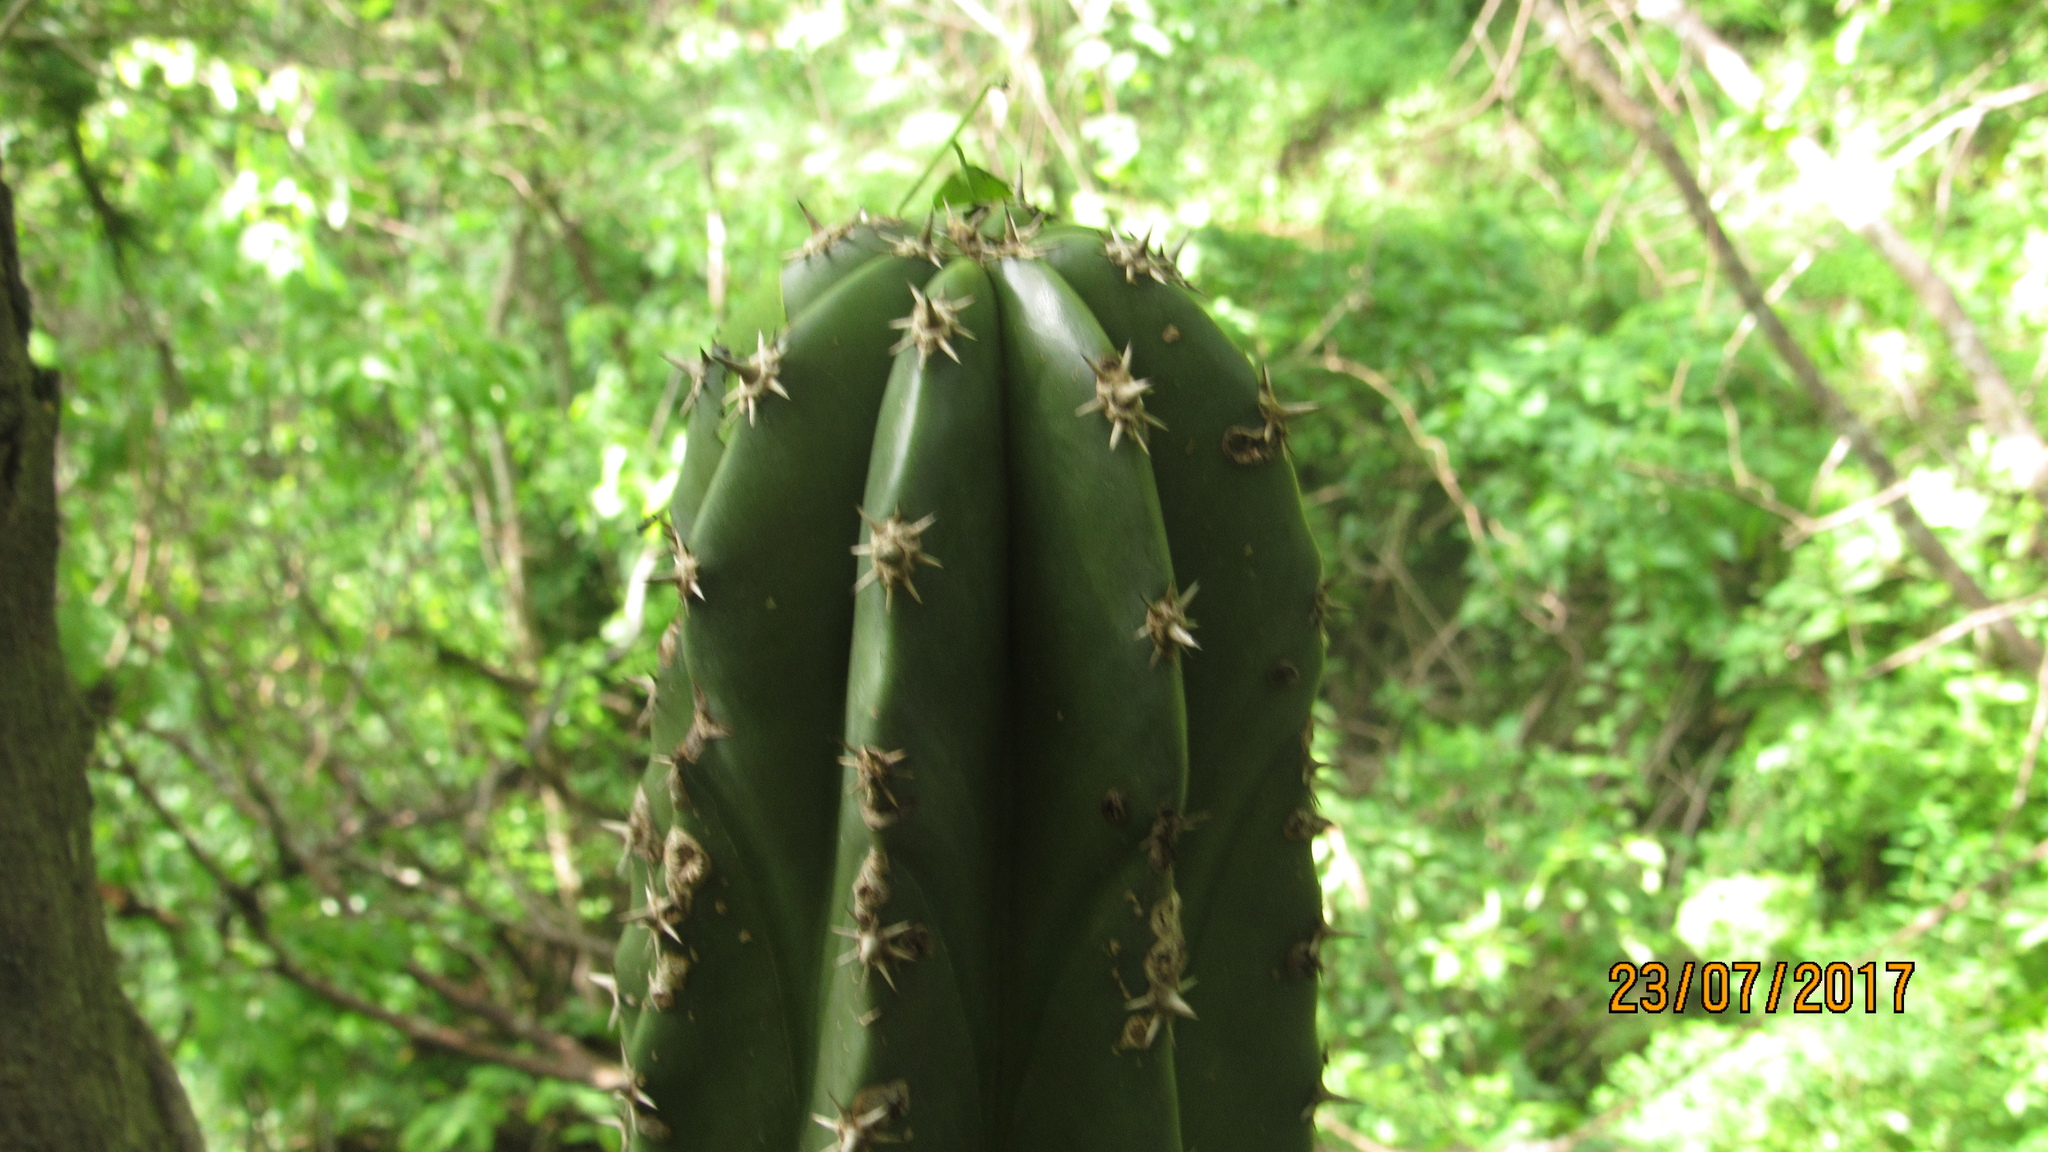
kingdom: Plantae
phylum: Tracheophyta
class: Magnoliopsida
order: Caryophyllales
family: Cactaceae
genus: Pachycereus
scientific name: Pachycereus pecten-aboriginum
